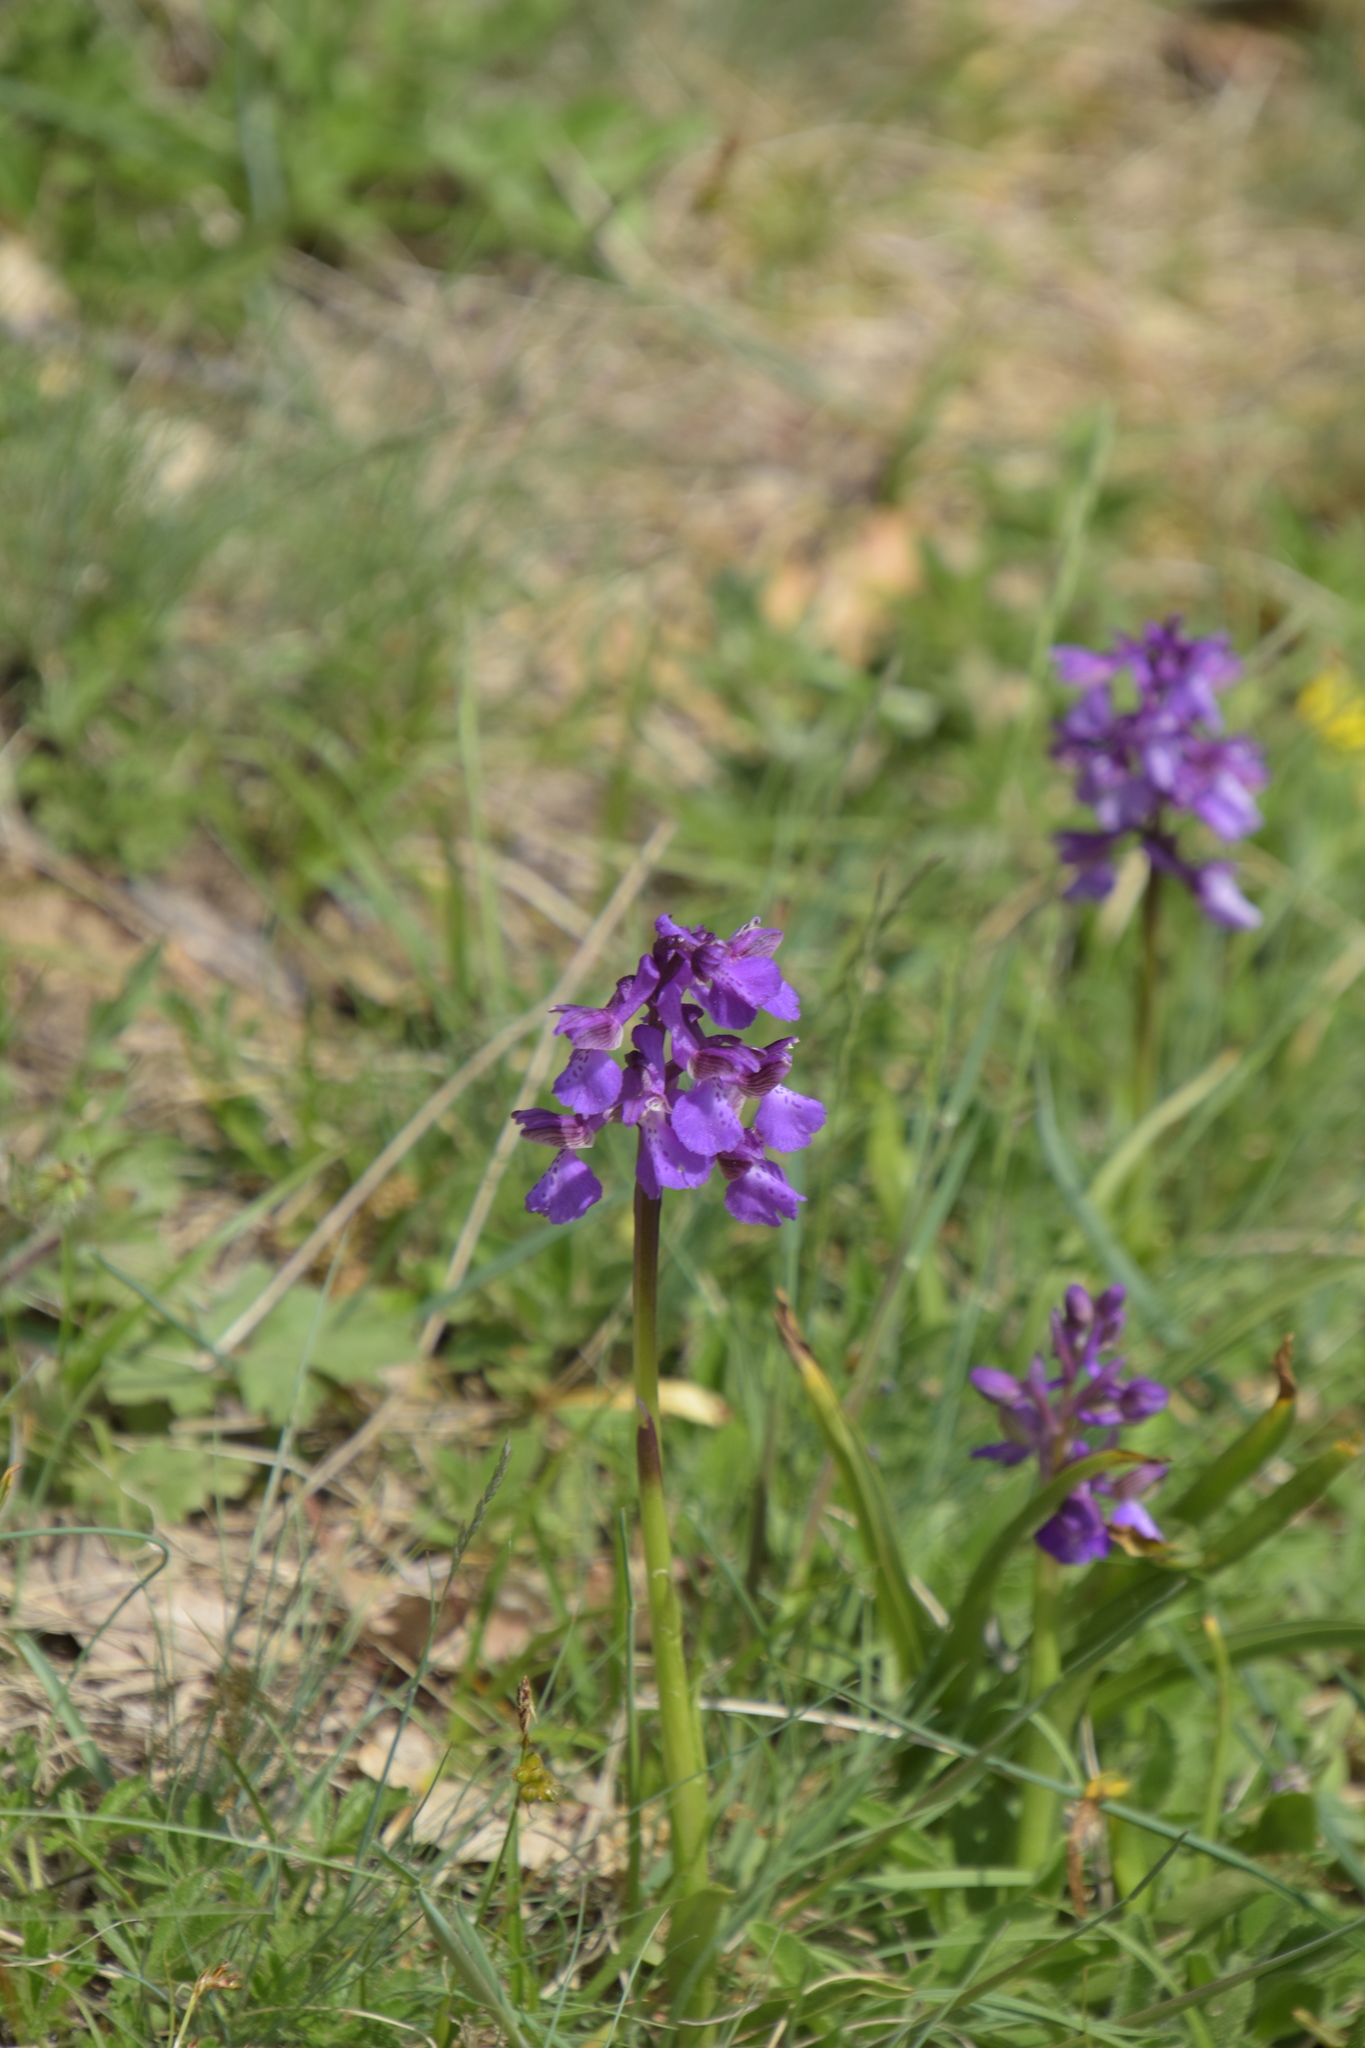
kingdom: Plantae
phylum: Tracheophyta
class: Liliopsida
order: Asparagales
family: Orchidaceae
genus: Anacamptis
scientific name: Anacamptis morio
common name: Green-winged orchid
